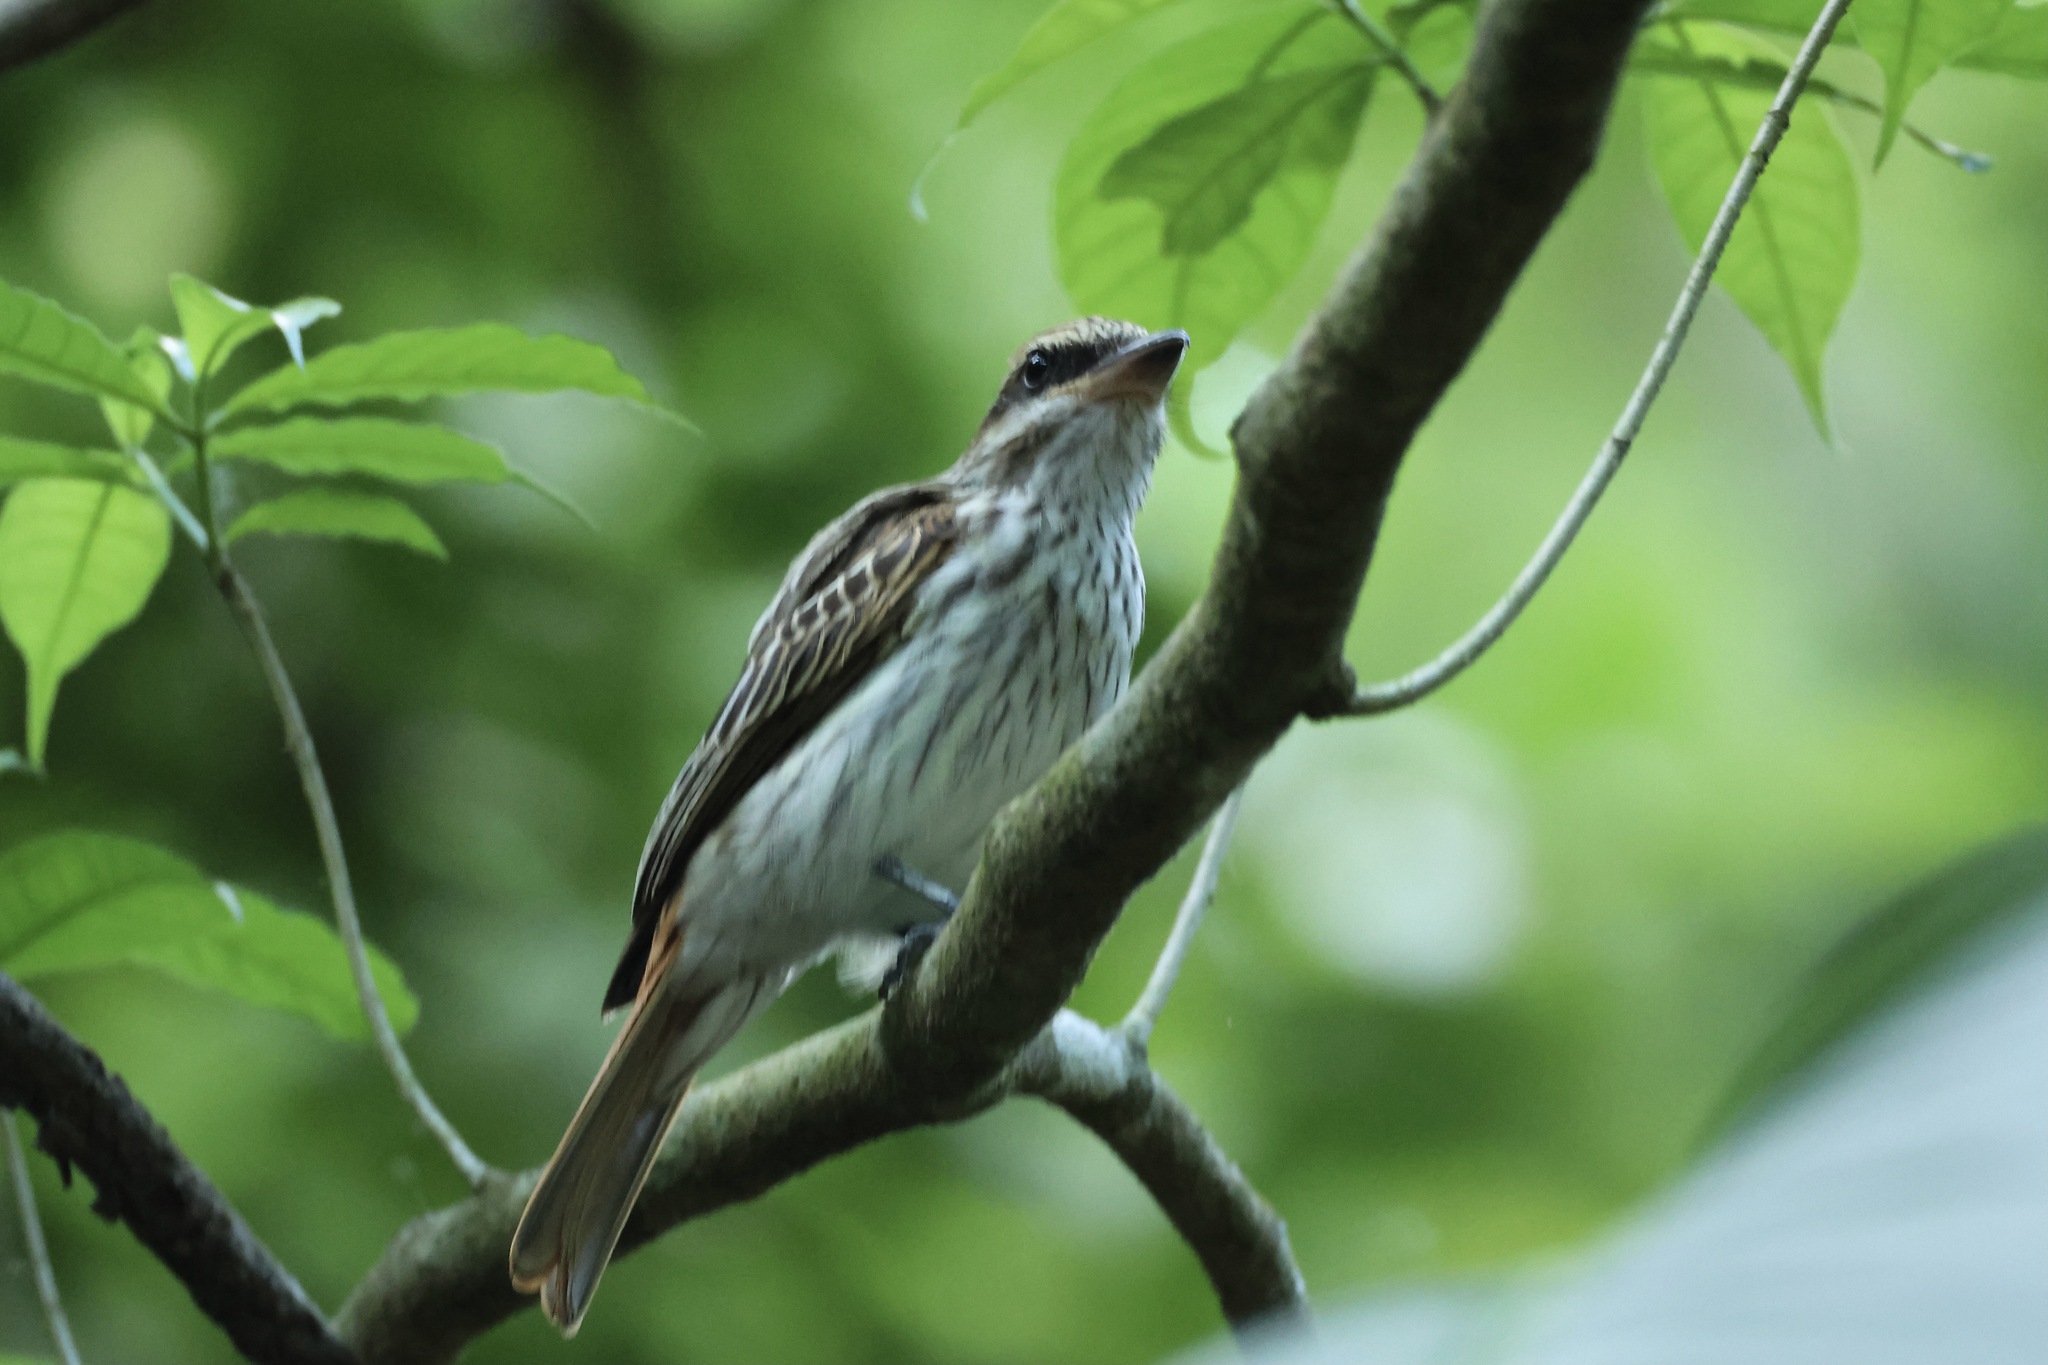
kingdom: Animalia
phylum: Chordata
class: Aves
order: Passeriformes
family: Tyrannidae
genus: Myiodynastes
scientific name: Myiodynastes maculatus
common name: Streaked flycatcher
